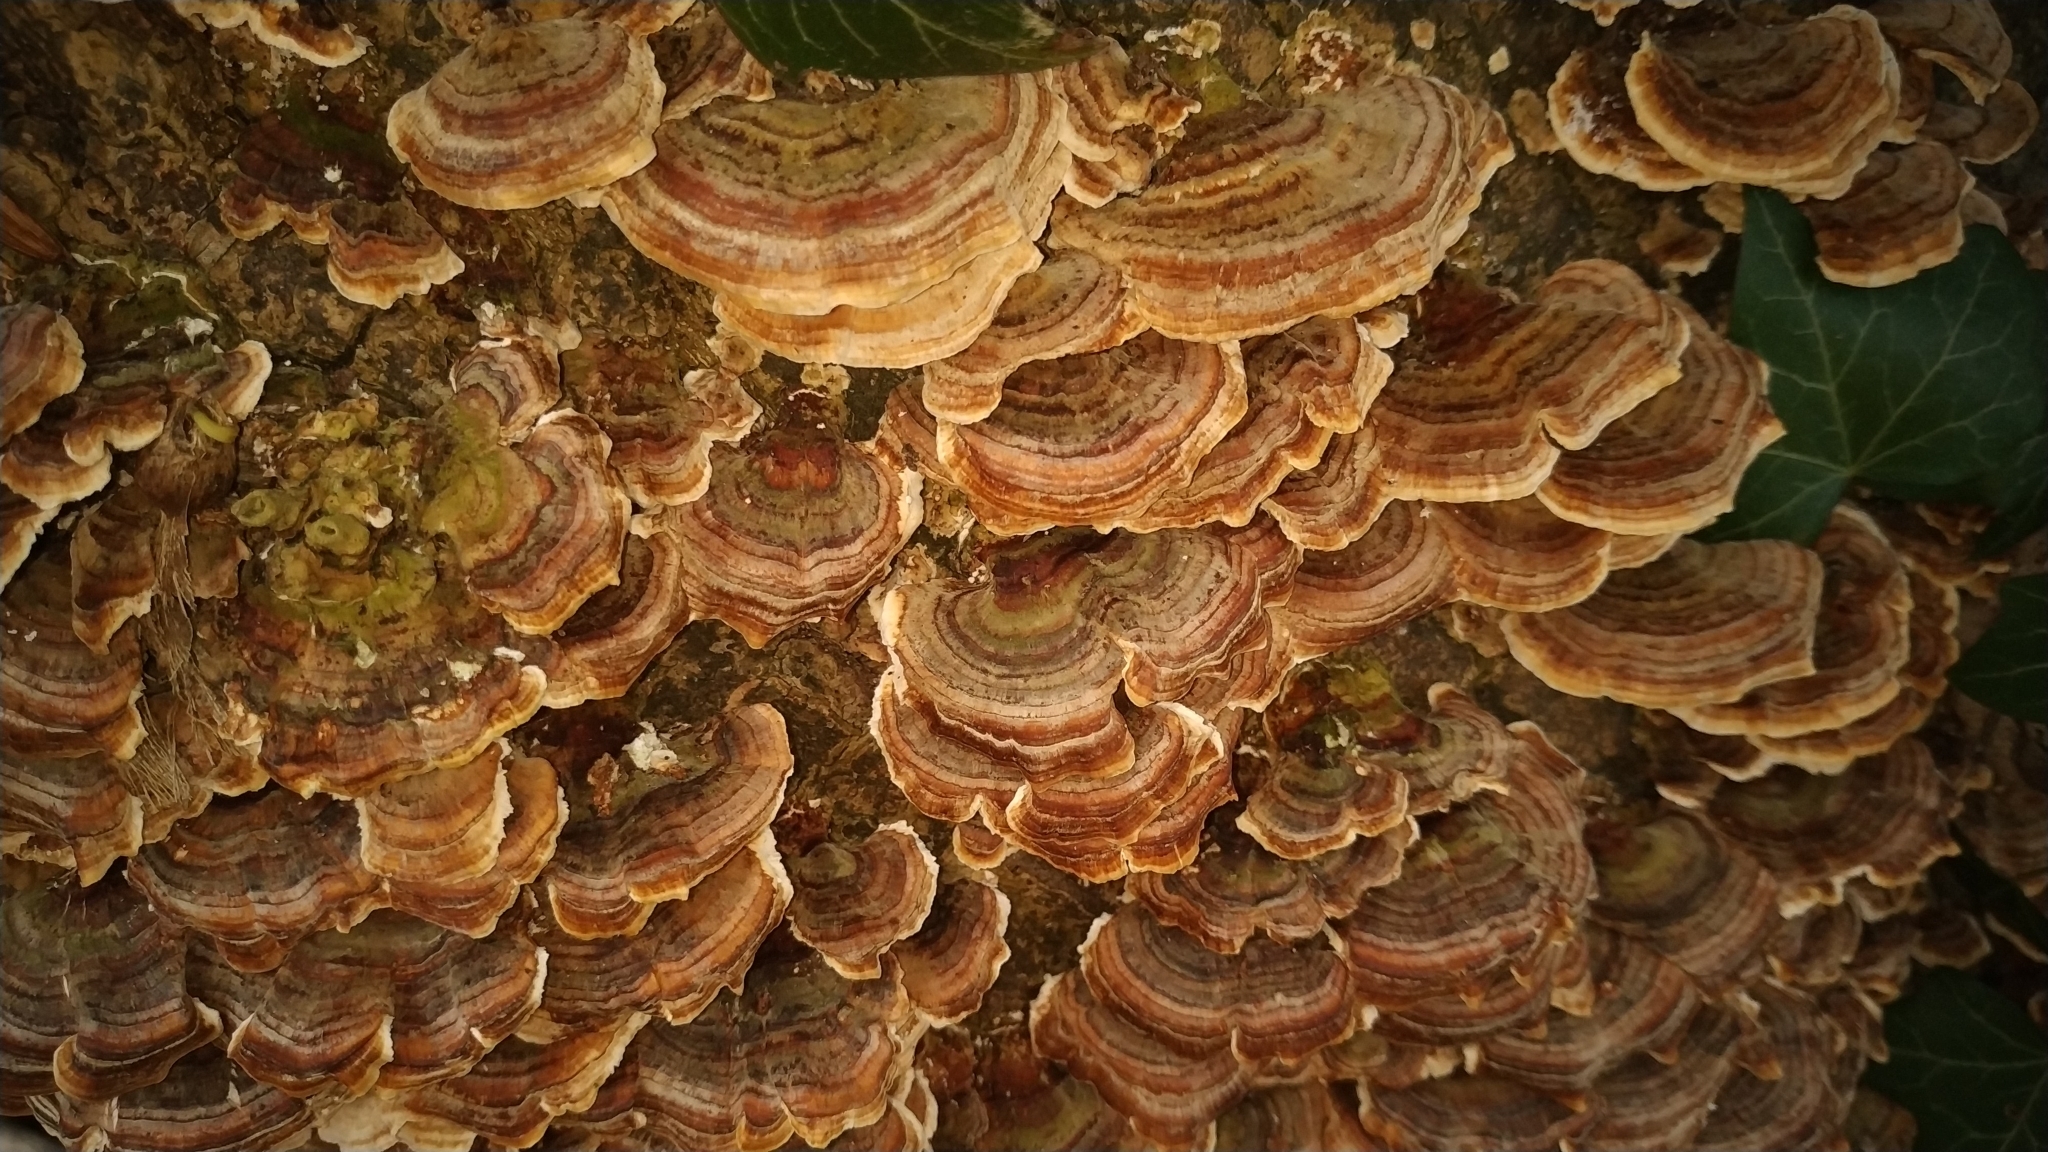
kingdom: Fungi
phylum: Basidiomycota
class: Agaricomycetes
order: Polyporales
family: Polyporaceae
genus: Trametes
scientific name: Trametes versicolor
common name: Turkeytail
